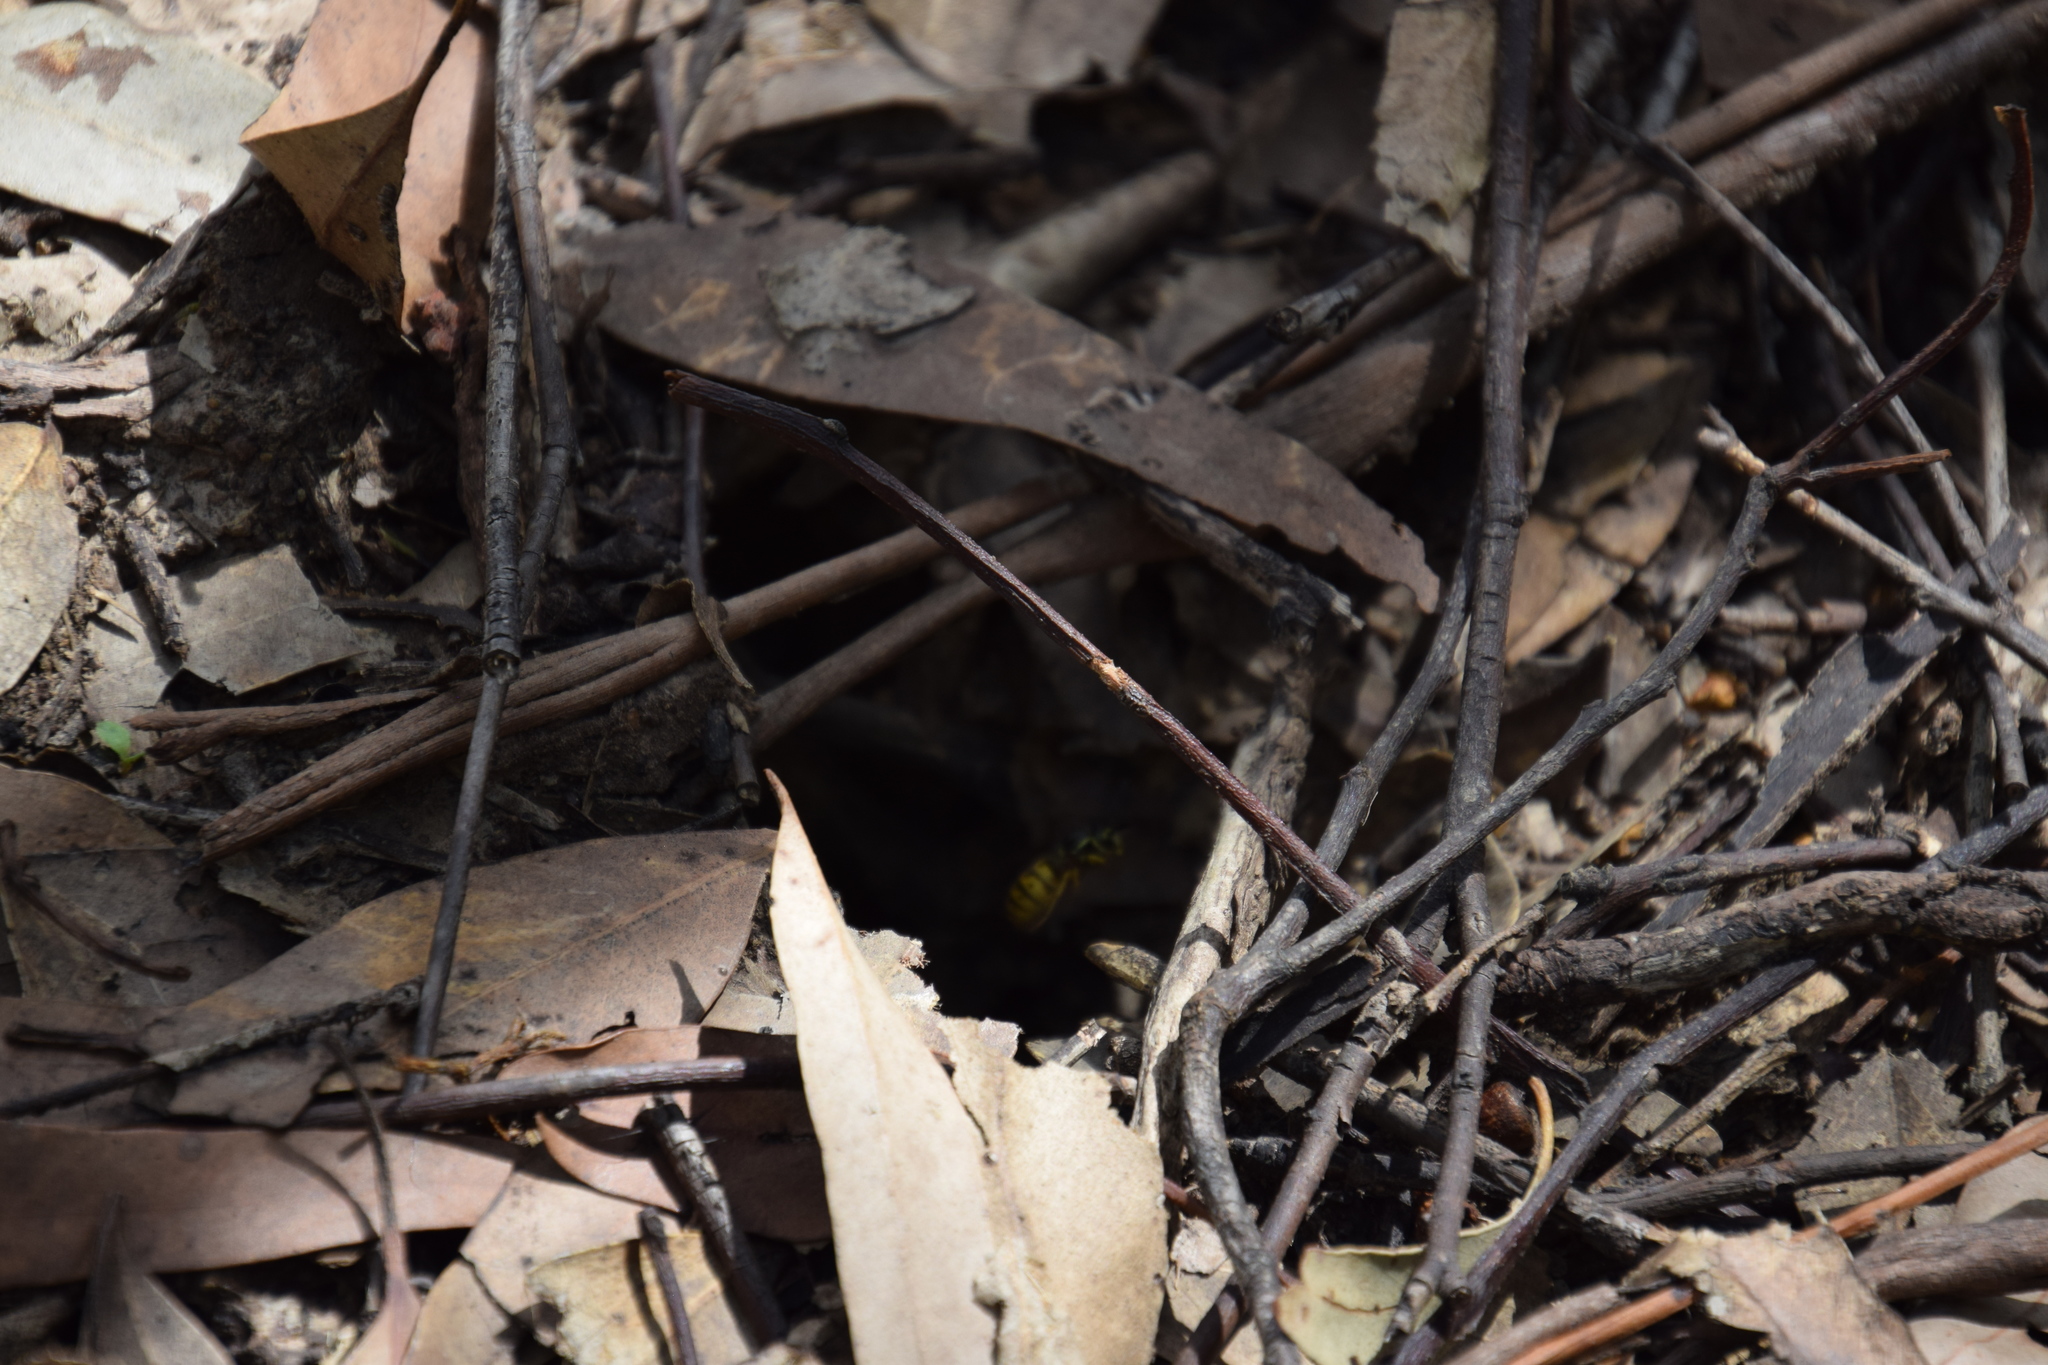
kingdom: Animalia
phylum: Arthropoda
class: Insecta
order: Hymenoptera
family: Vespidae
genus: Vespula
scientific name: Vespula germanica
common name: German wasp
